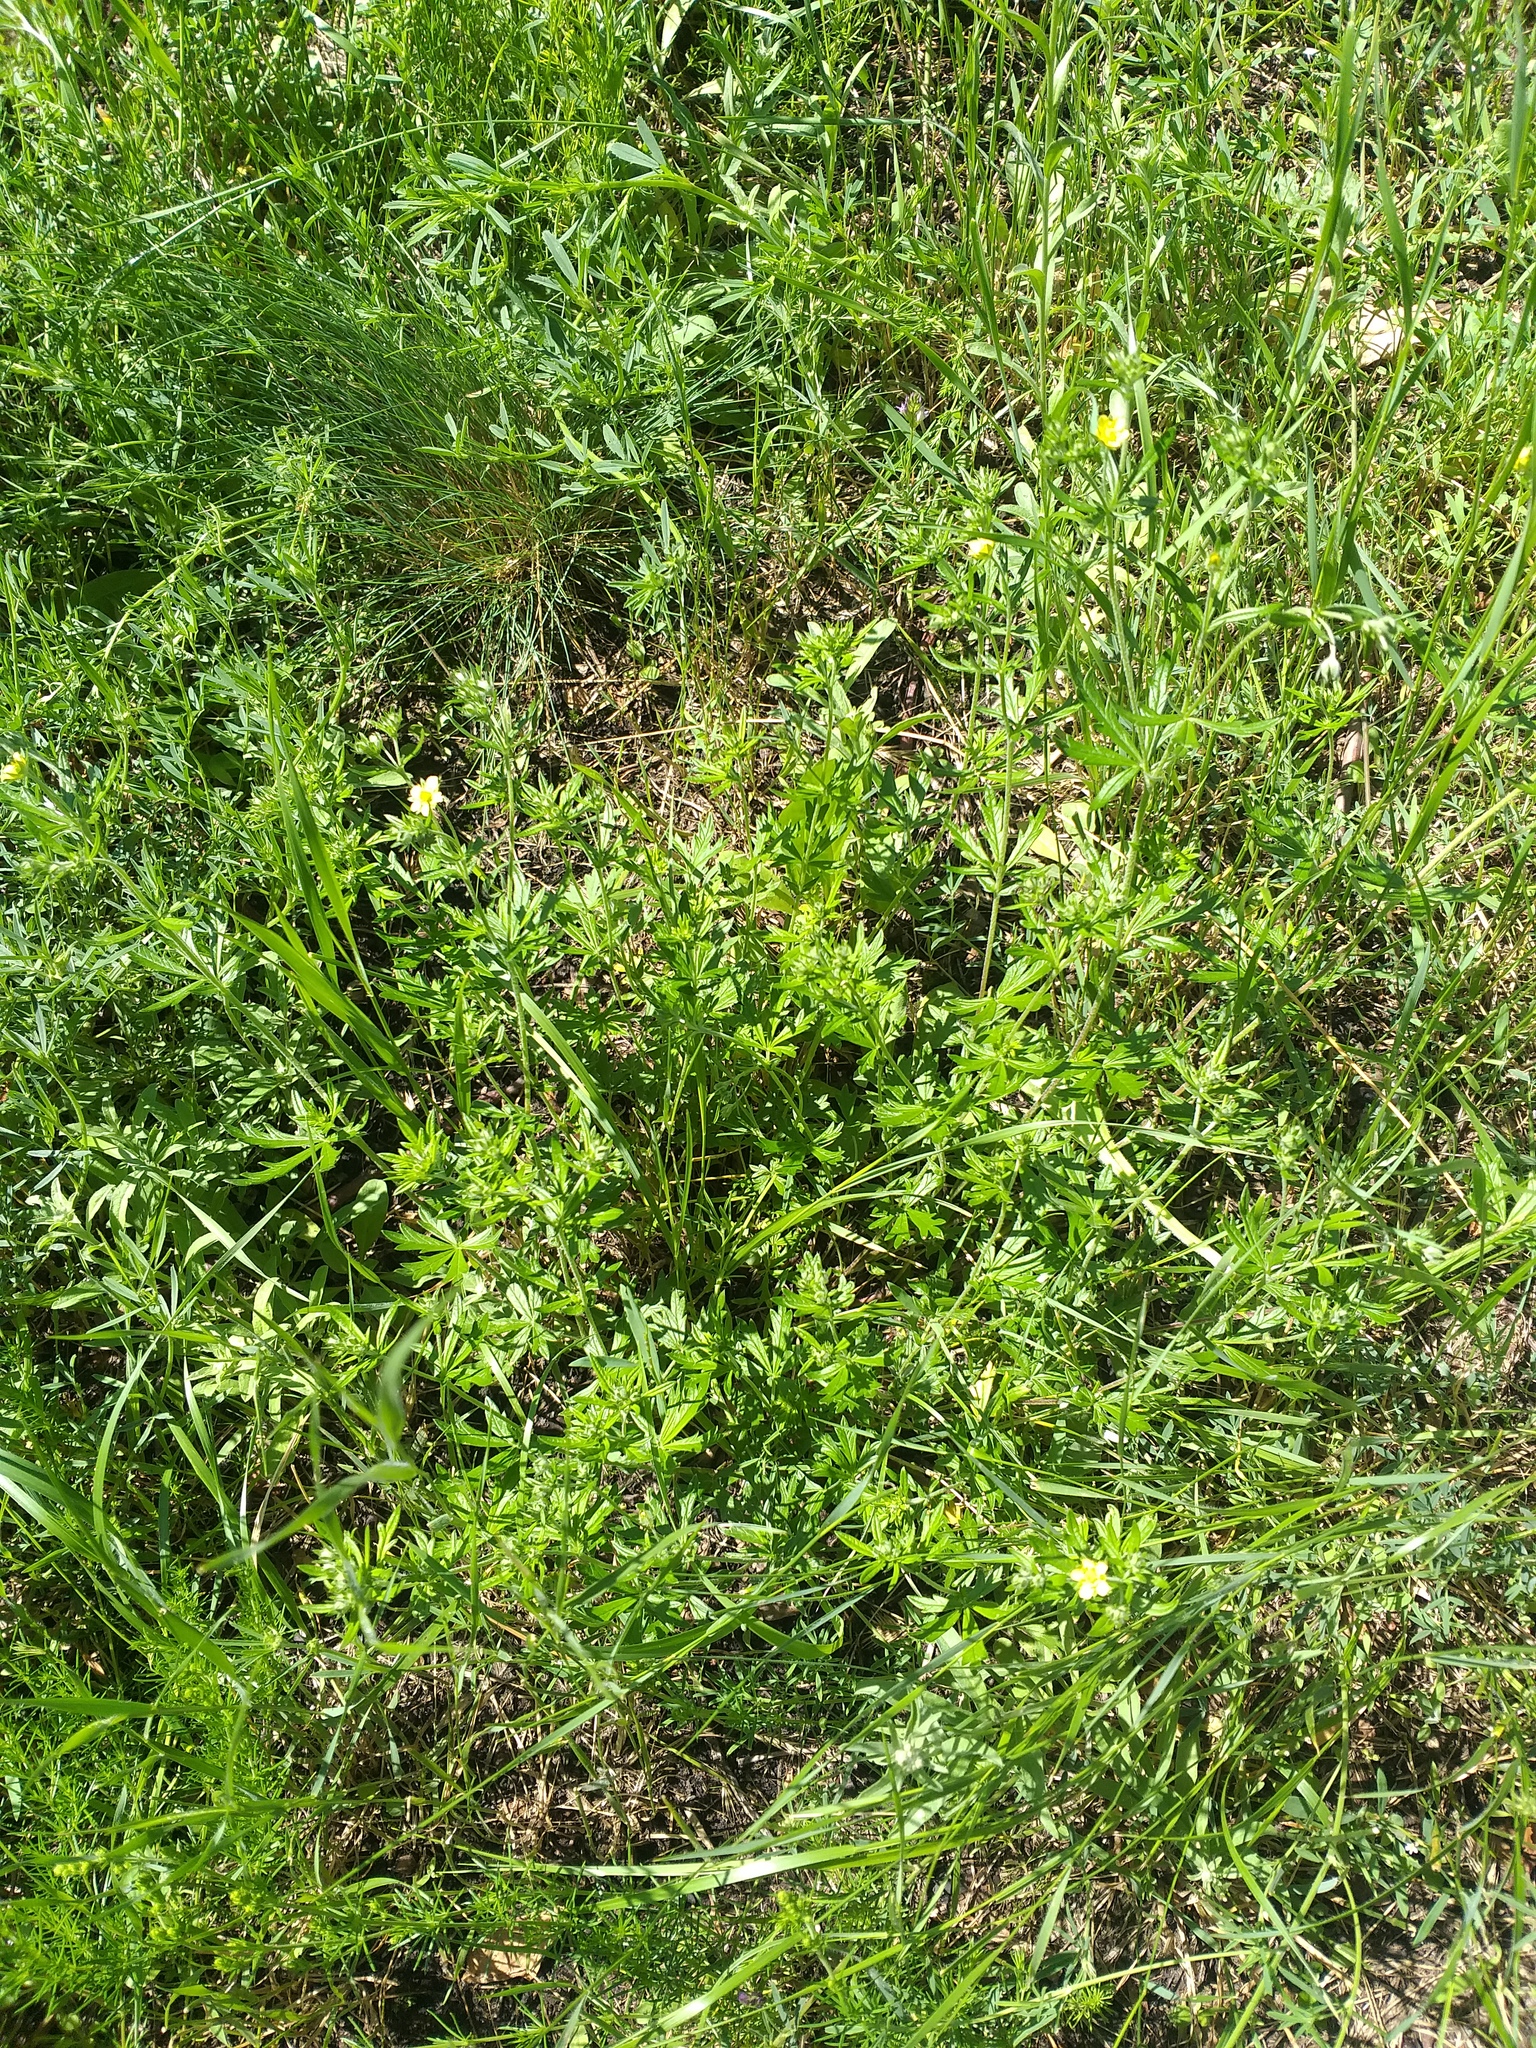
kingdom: Plantae
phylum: Tracheophyta
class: Magnoliopsida
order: Rosales
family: Rosaceae
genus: Potentilla
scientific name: Potentilla argentea
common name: Hoary cinquefoil
